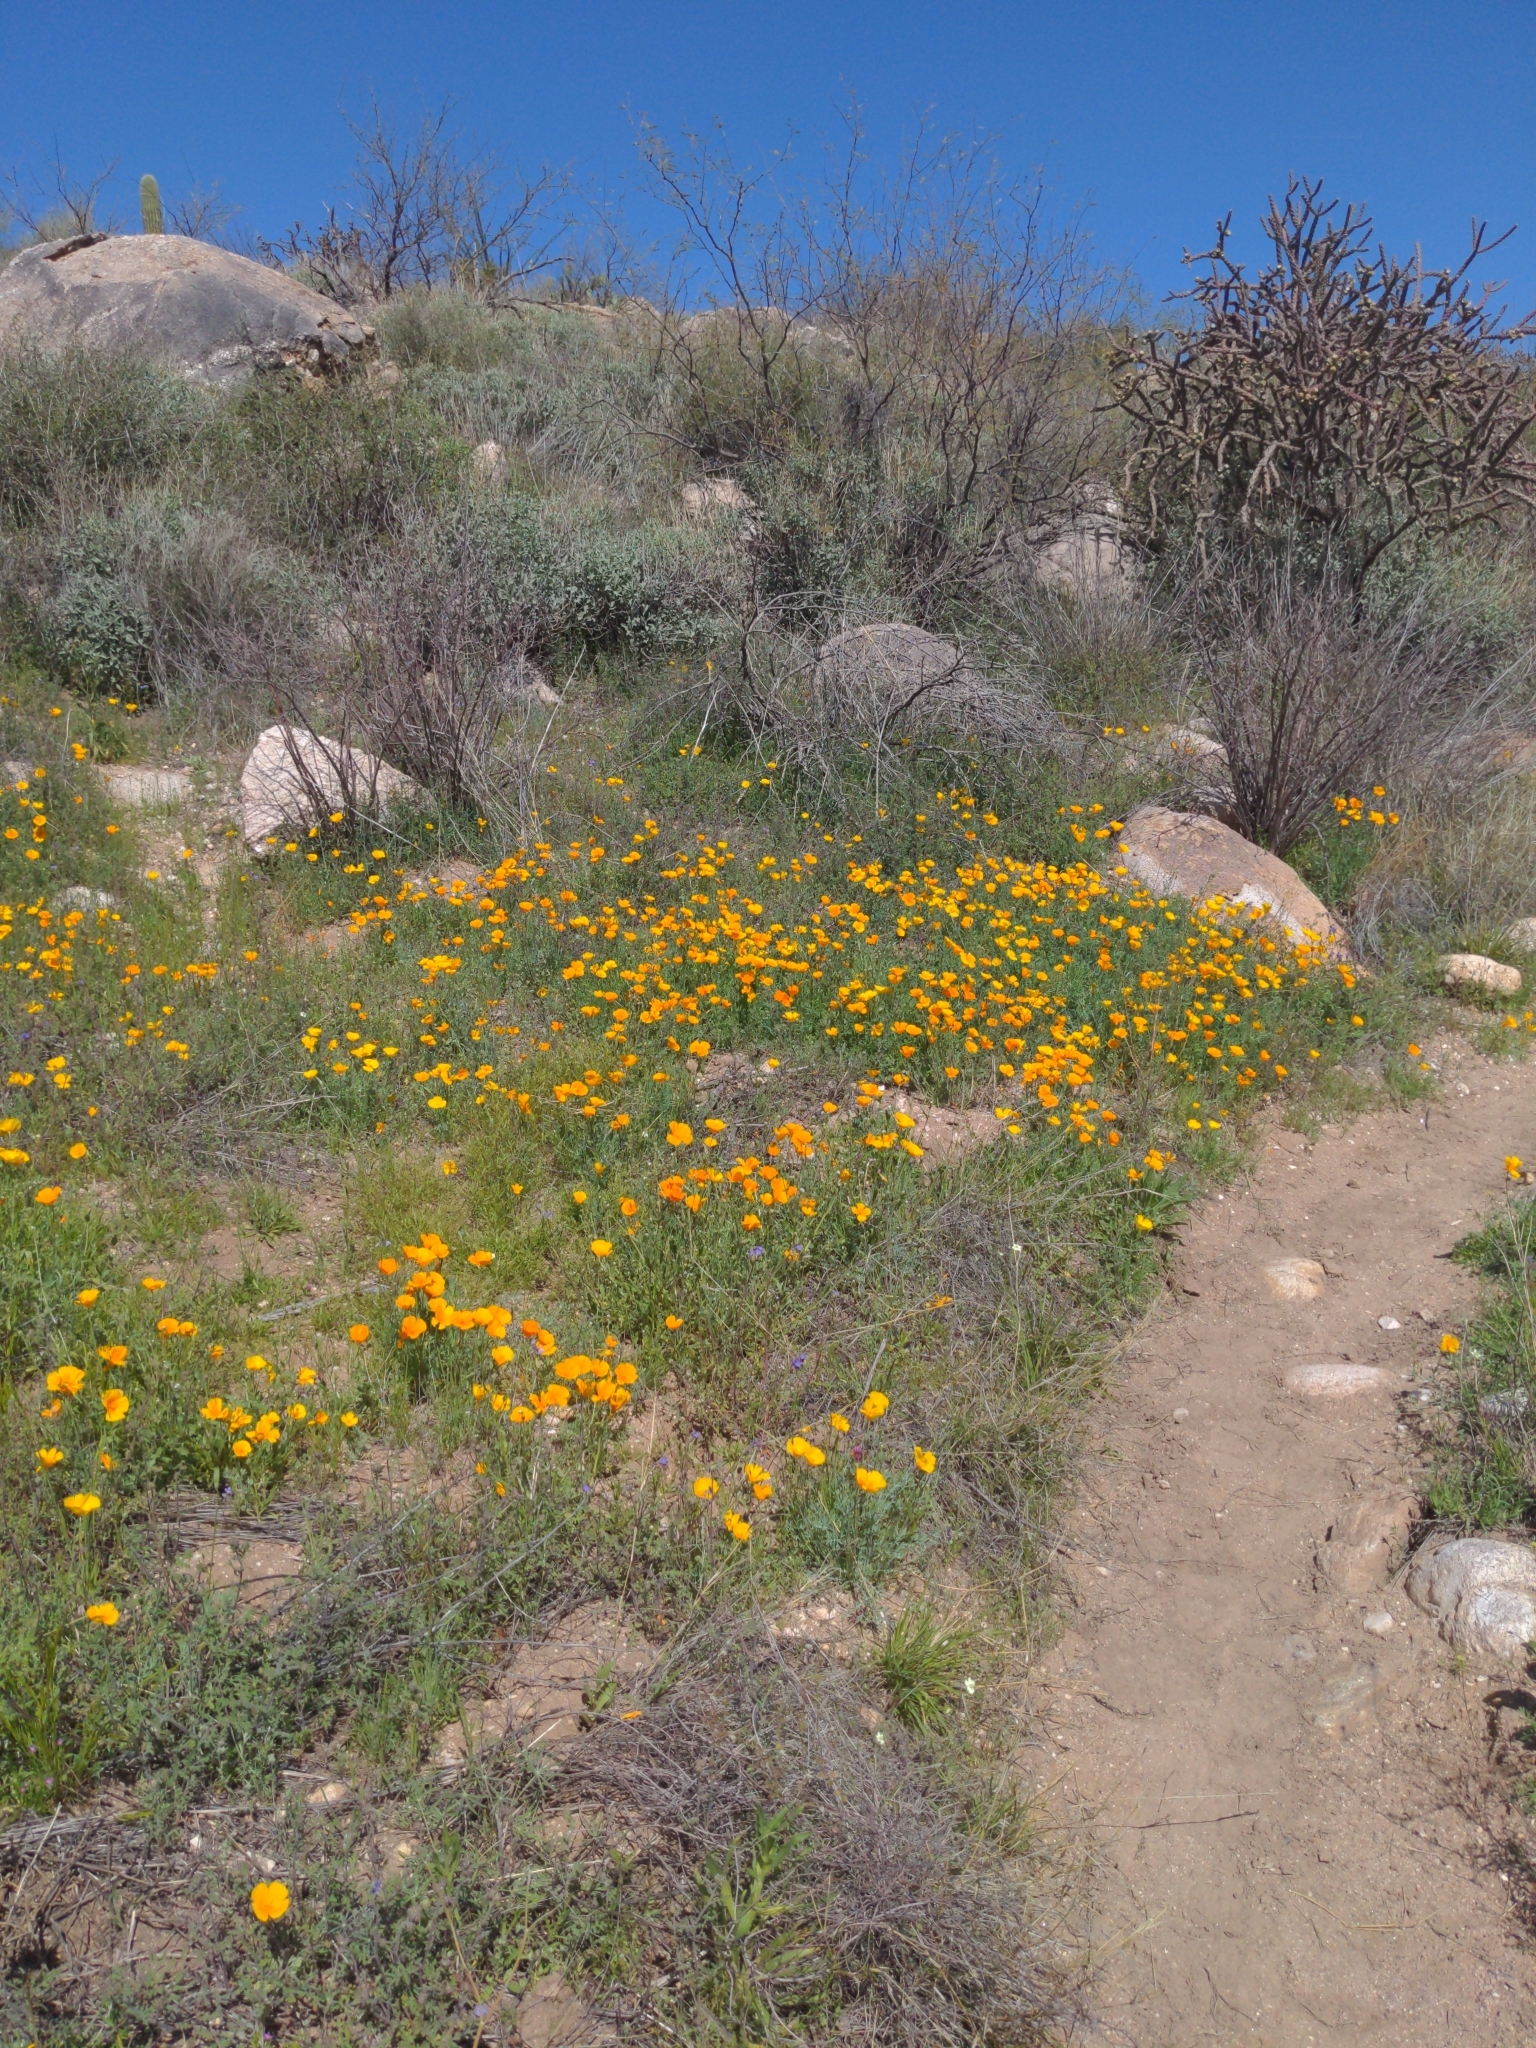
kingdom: Plantae
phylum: Tracheophyta
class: Magnoliopsida
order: Ranunculales
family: Papaveraceae
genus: Eschscholzia
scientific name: Eschscholzia californica
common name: California poppy
